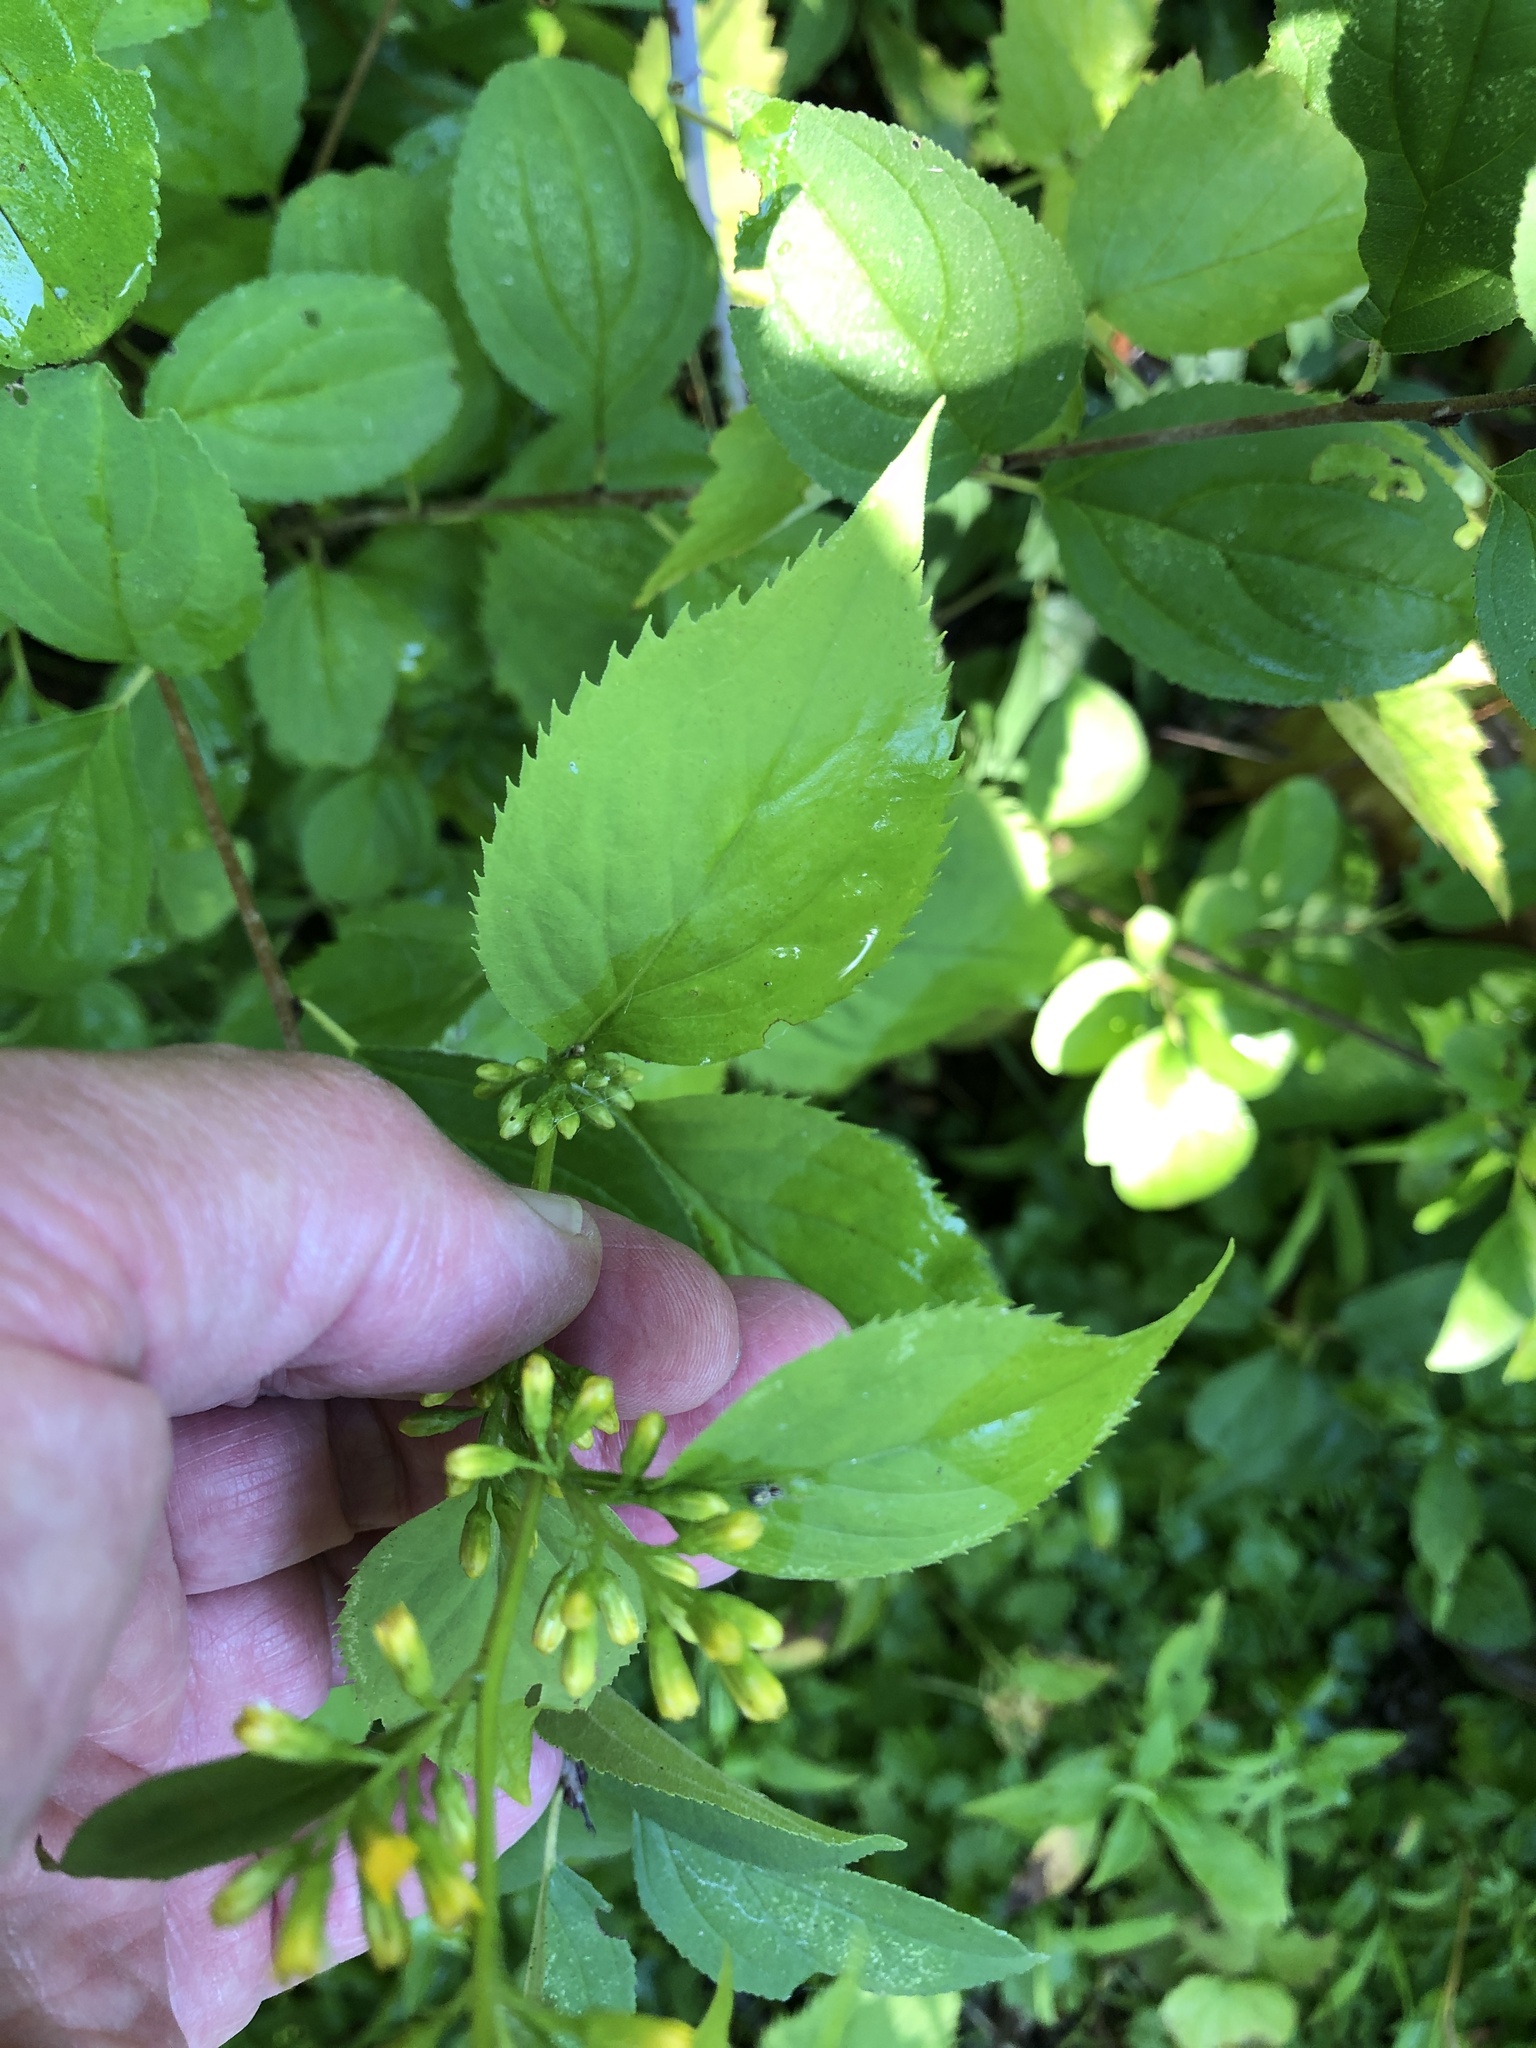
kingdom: Plantae
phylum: Tracheophyta
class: Magnoliopsida
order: Asterales
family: Asteraceae
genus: Solidago
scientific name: Solidago flexicaulis
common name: Zig-zag goldenrod
